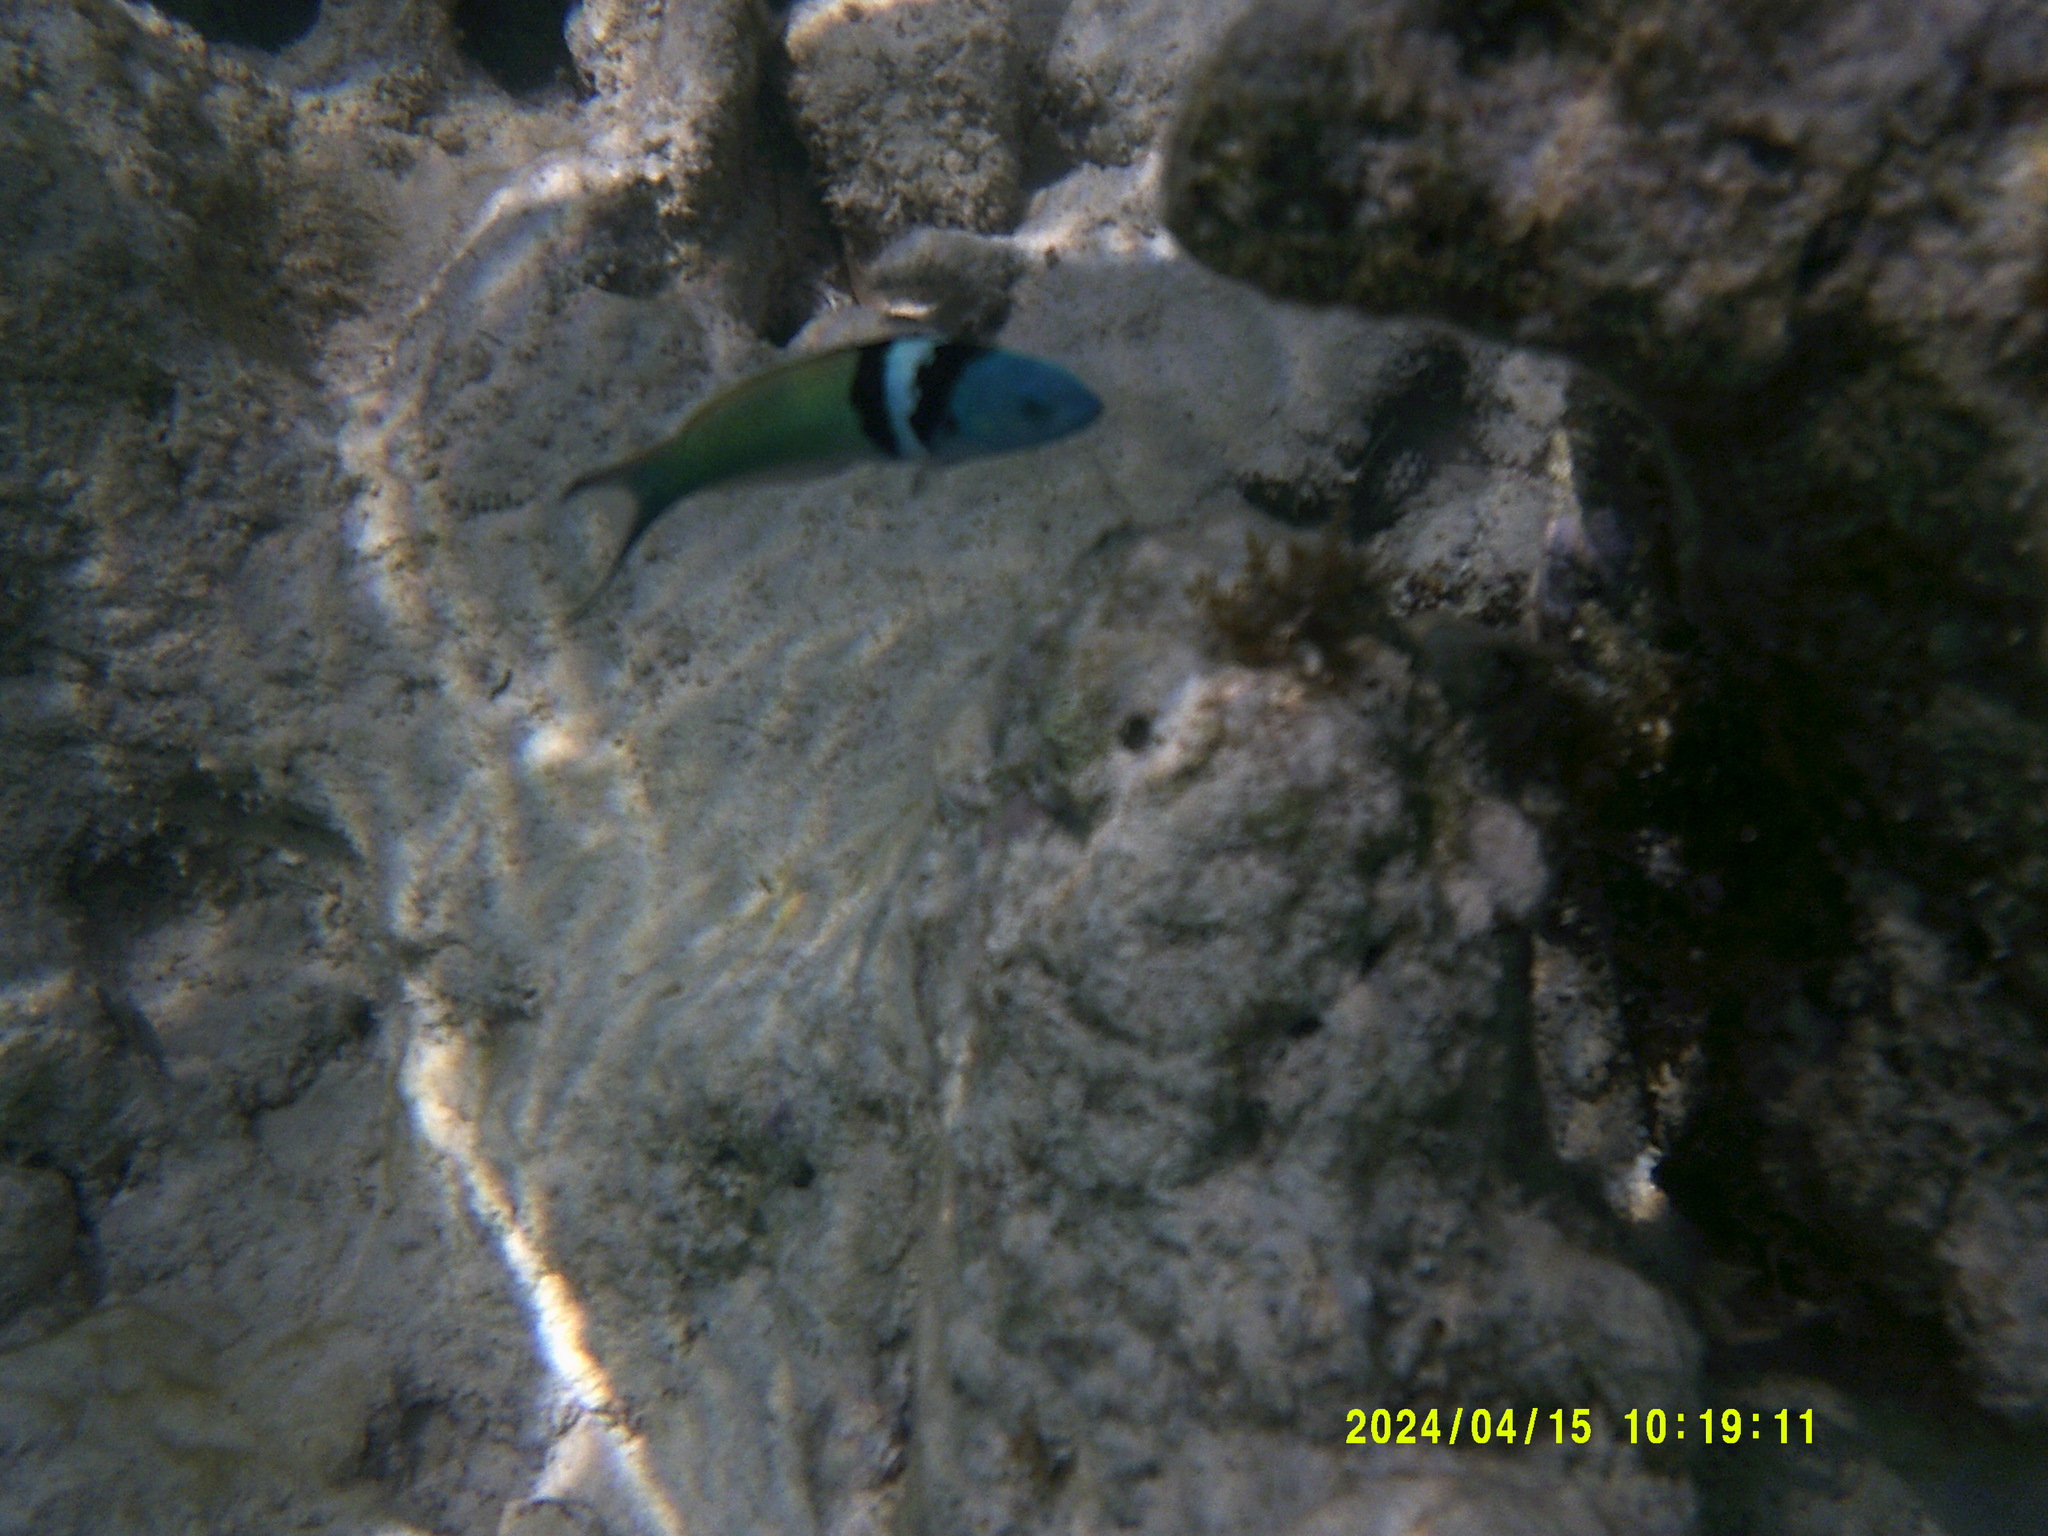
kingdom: Animalia
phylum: Chordata
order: Perciformes
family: Labridae
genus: Thalassoma
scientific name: Thalassoma bifasciatum
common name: Bluehead wrasse
